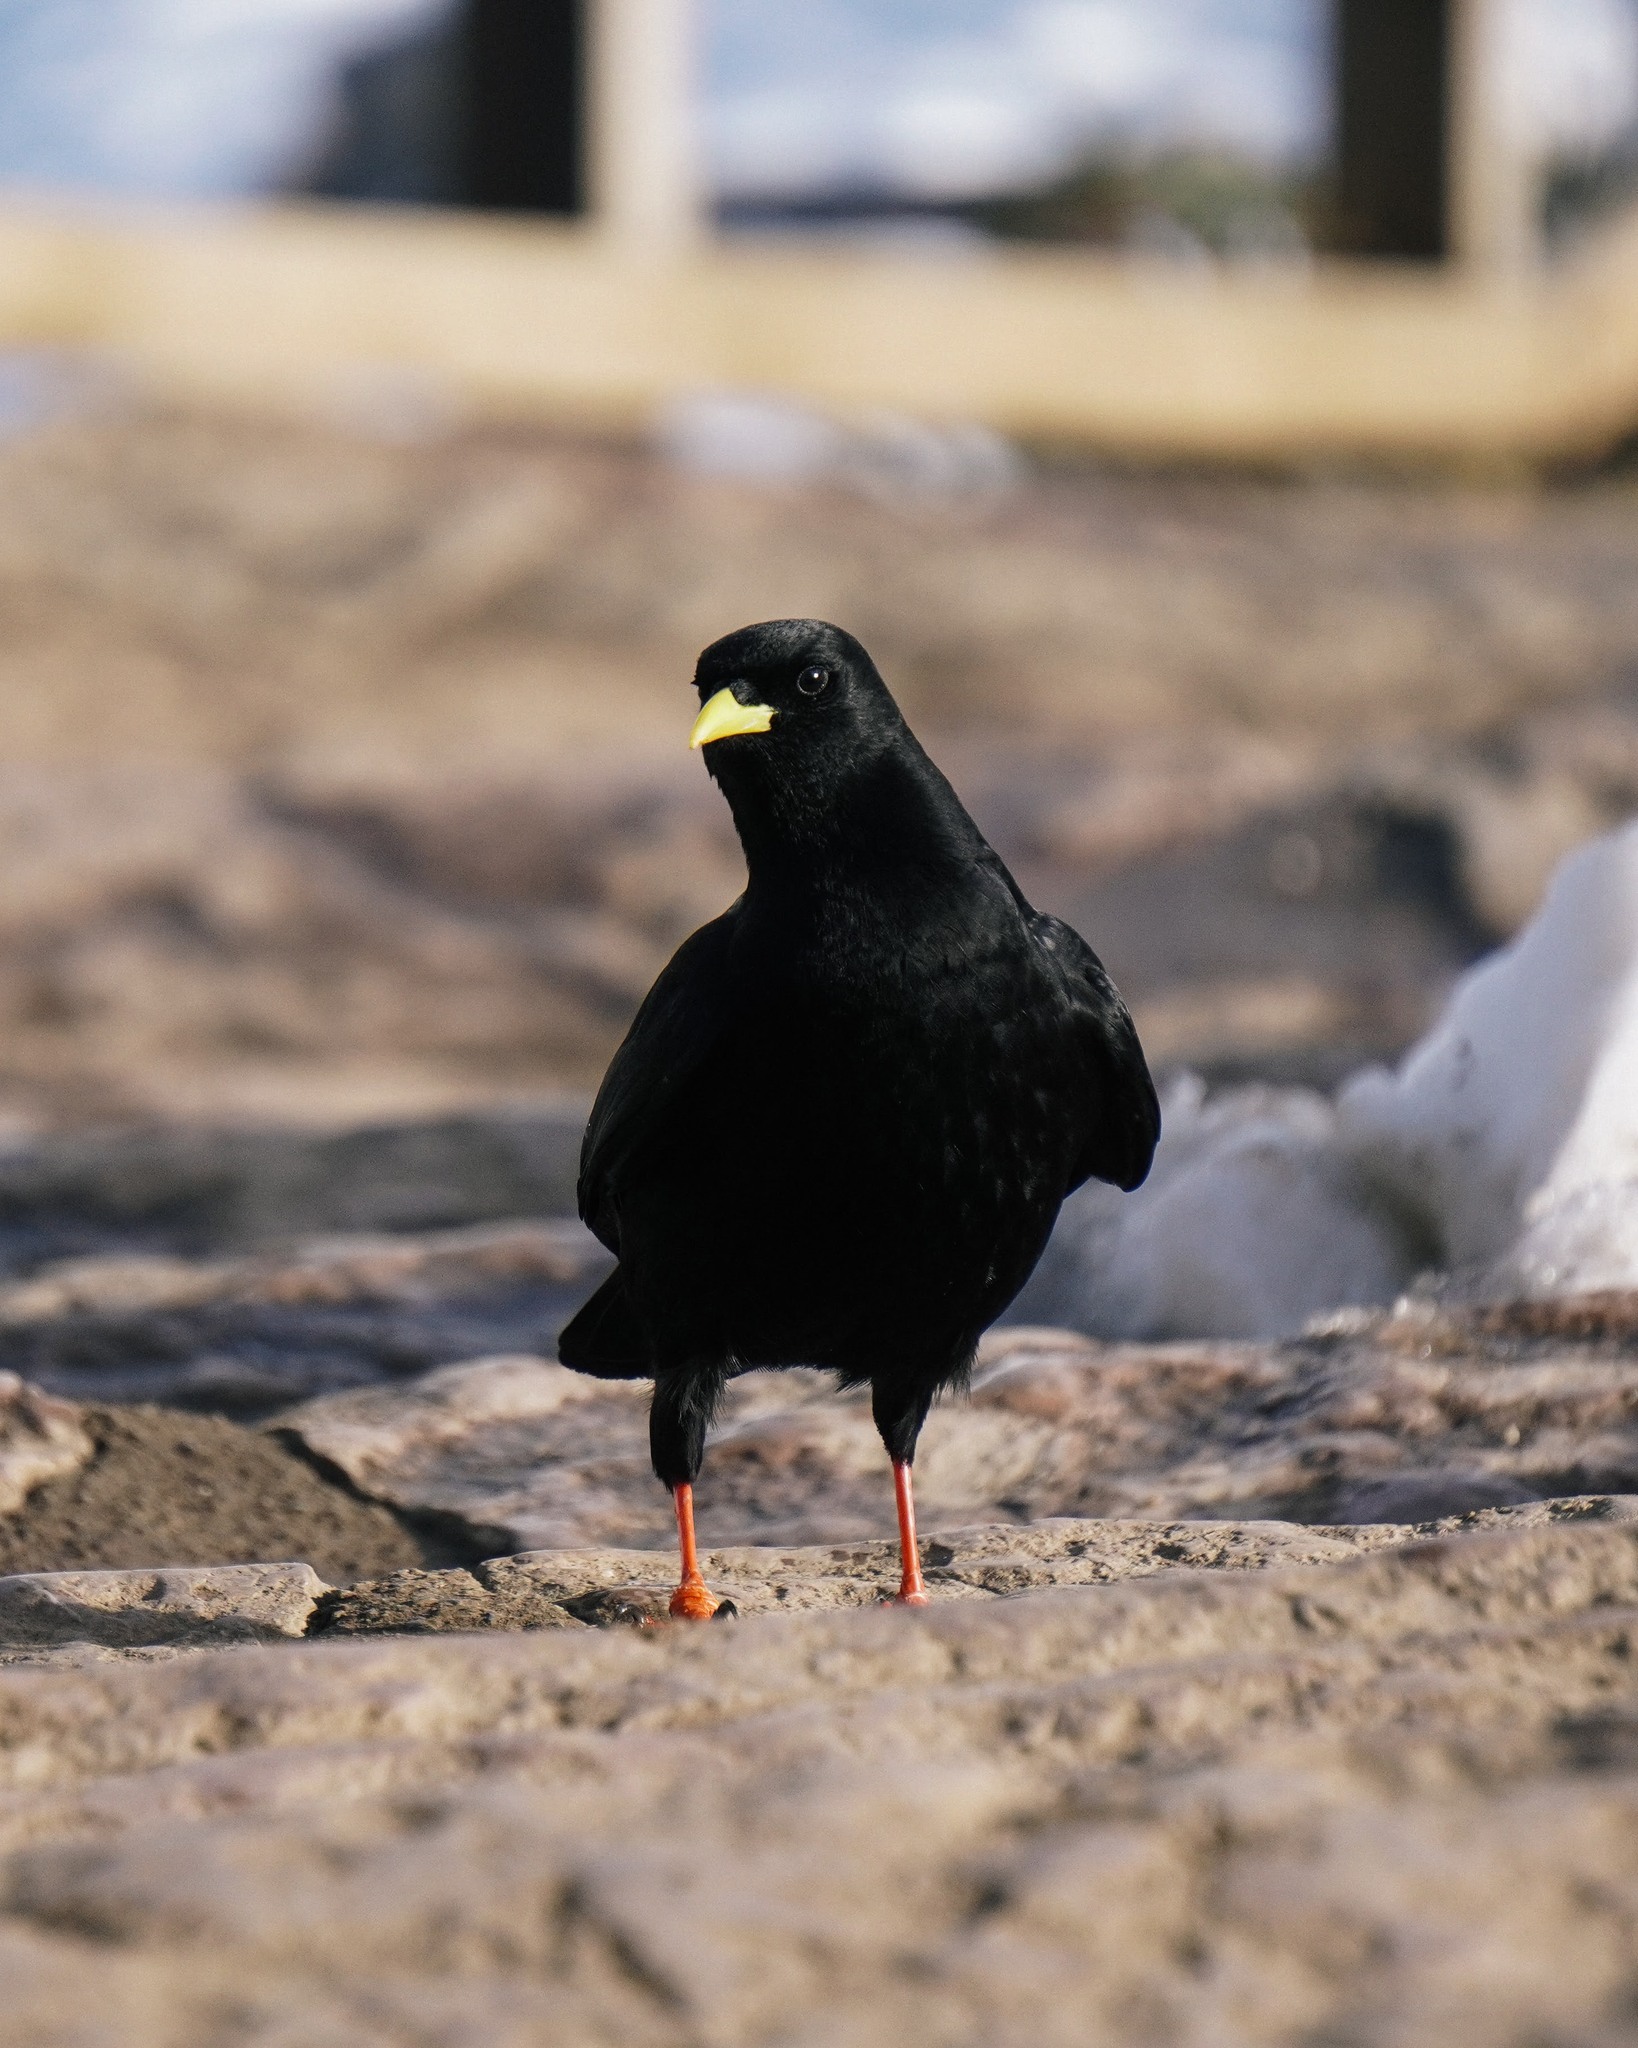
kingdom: Animalia
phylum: Chordata
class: Aves
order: Passeriformes
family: Corvidae
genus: Pyrrhocorax
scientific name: Pyrrhocorax graculus
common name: Alpine chough
